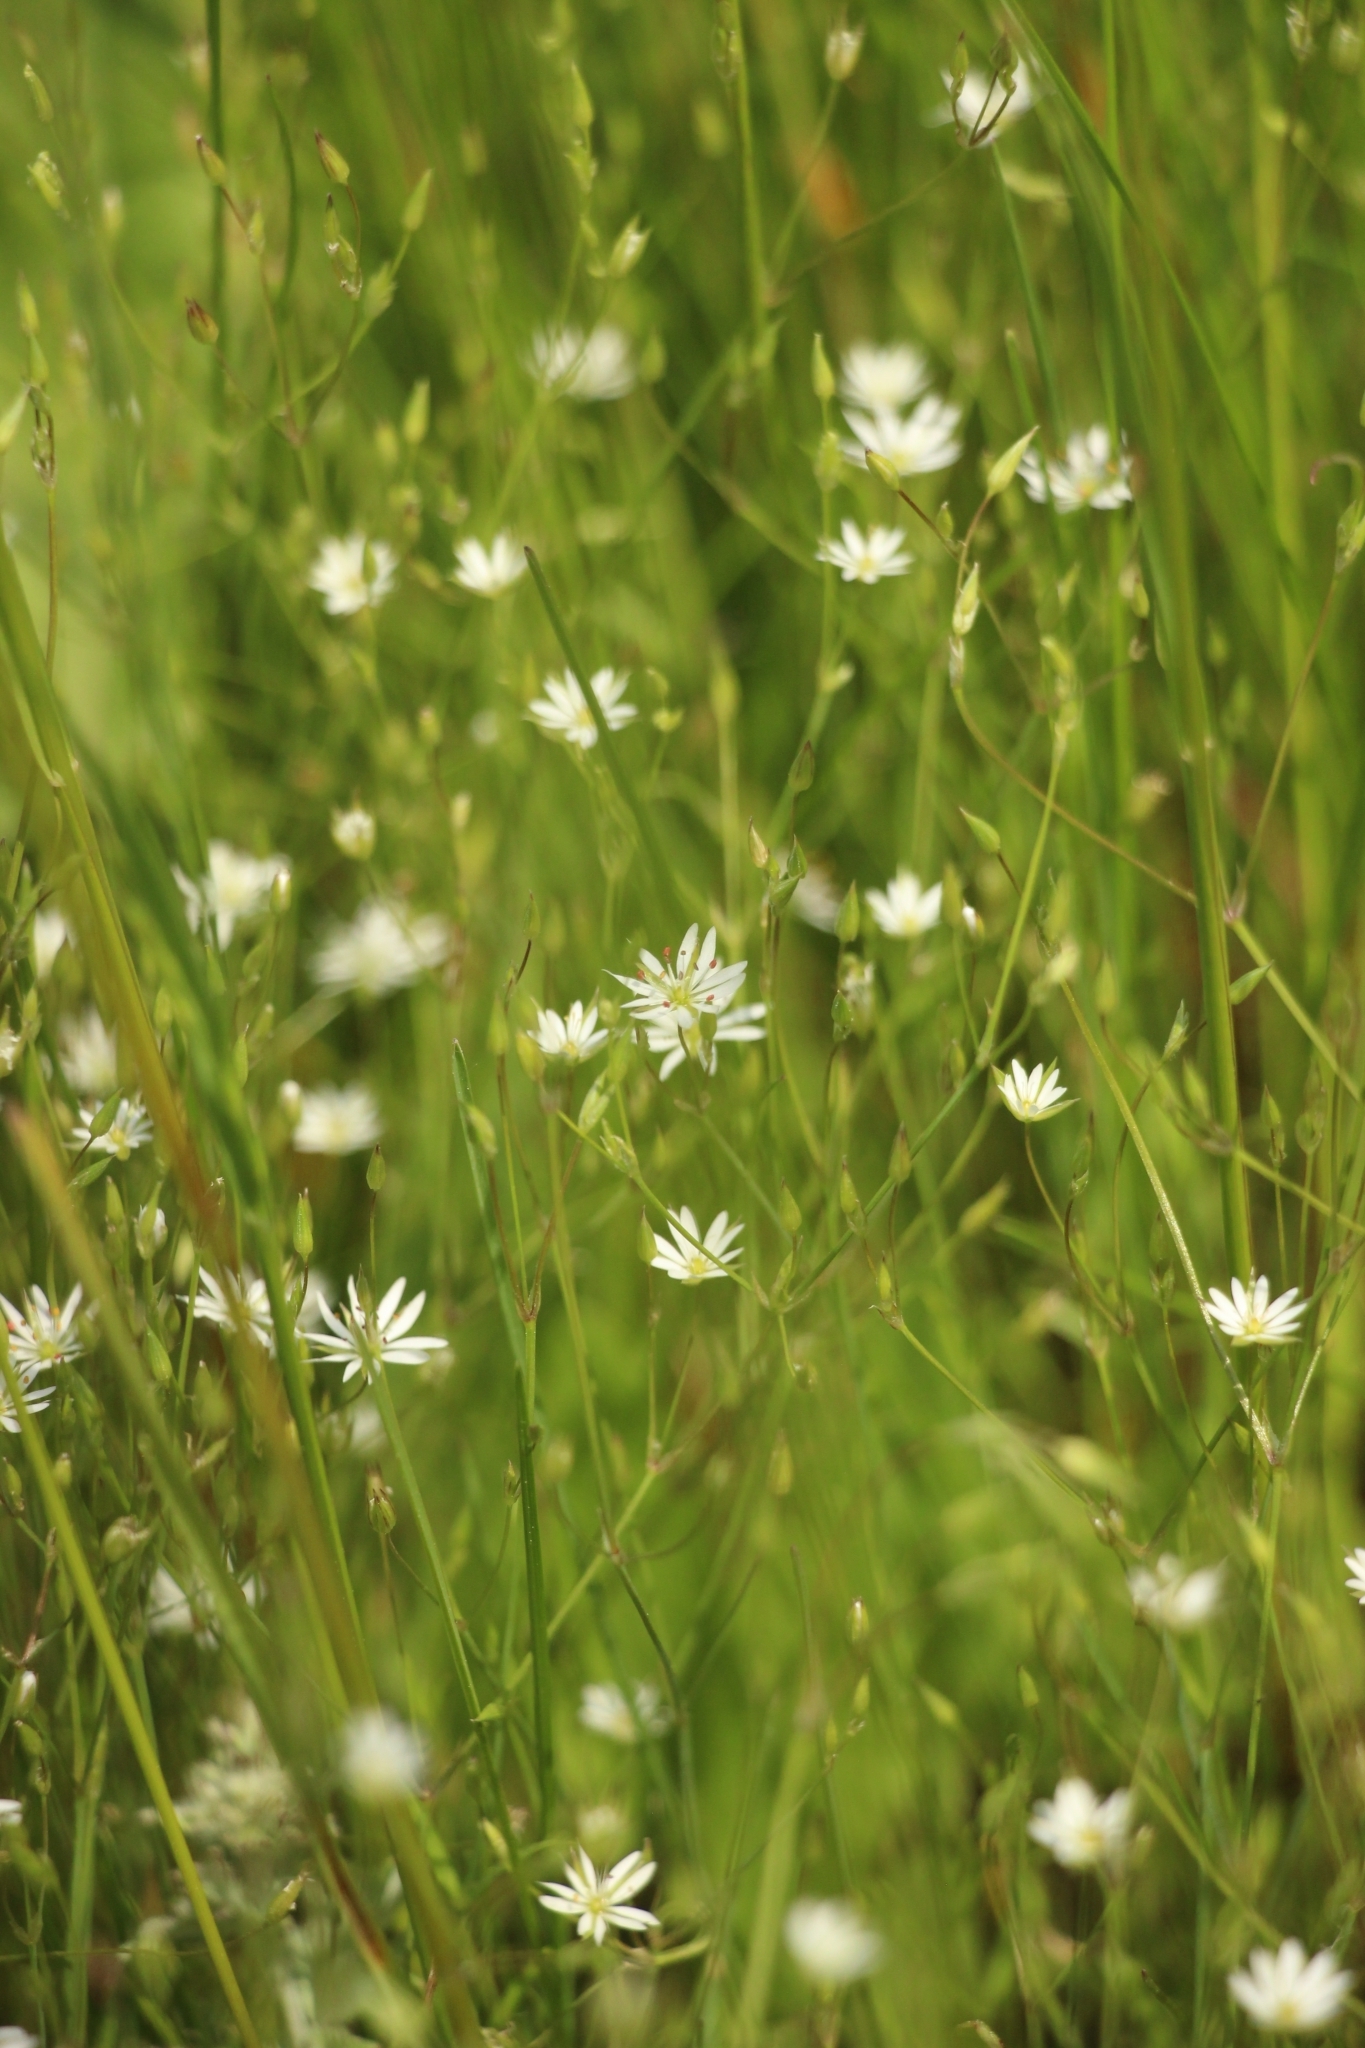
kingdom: Plantae
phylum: Tracheophyta
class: Magnoliopsida
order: Caryophyllales
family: Caryophyllaceae
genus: Stellaria
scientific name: Stellaria graminea
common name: Grass-like starwort
